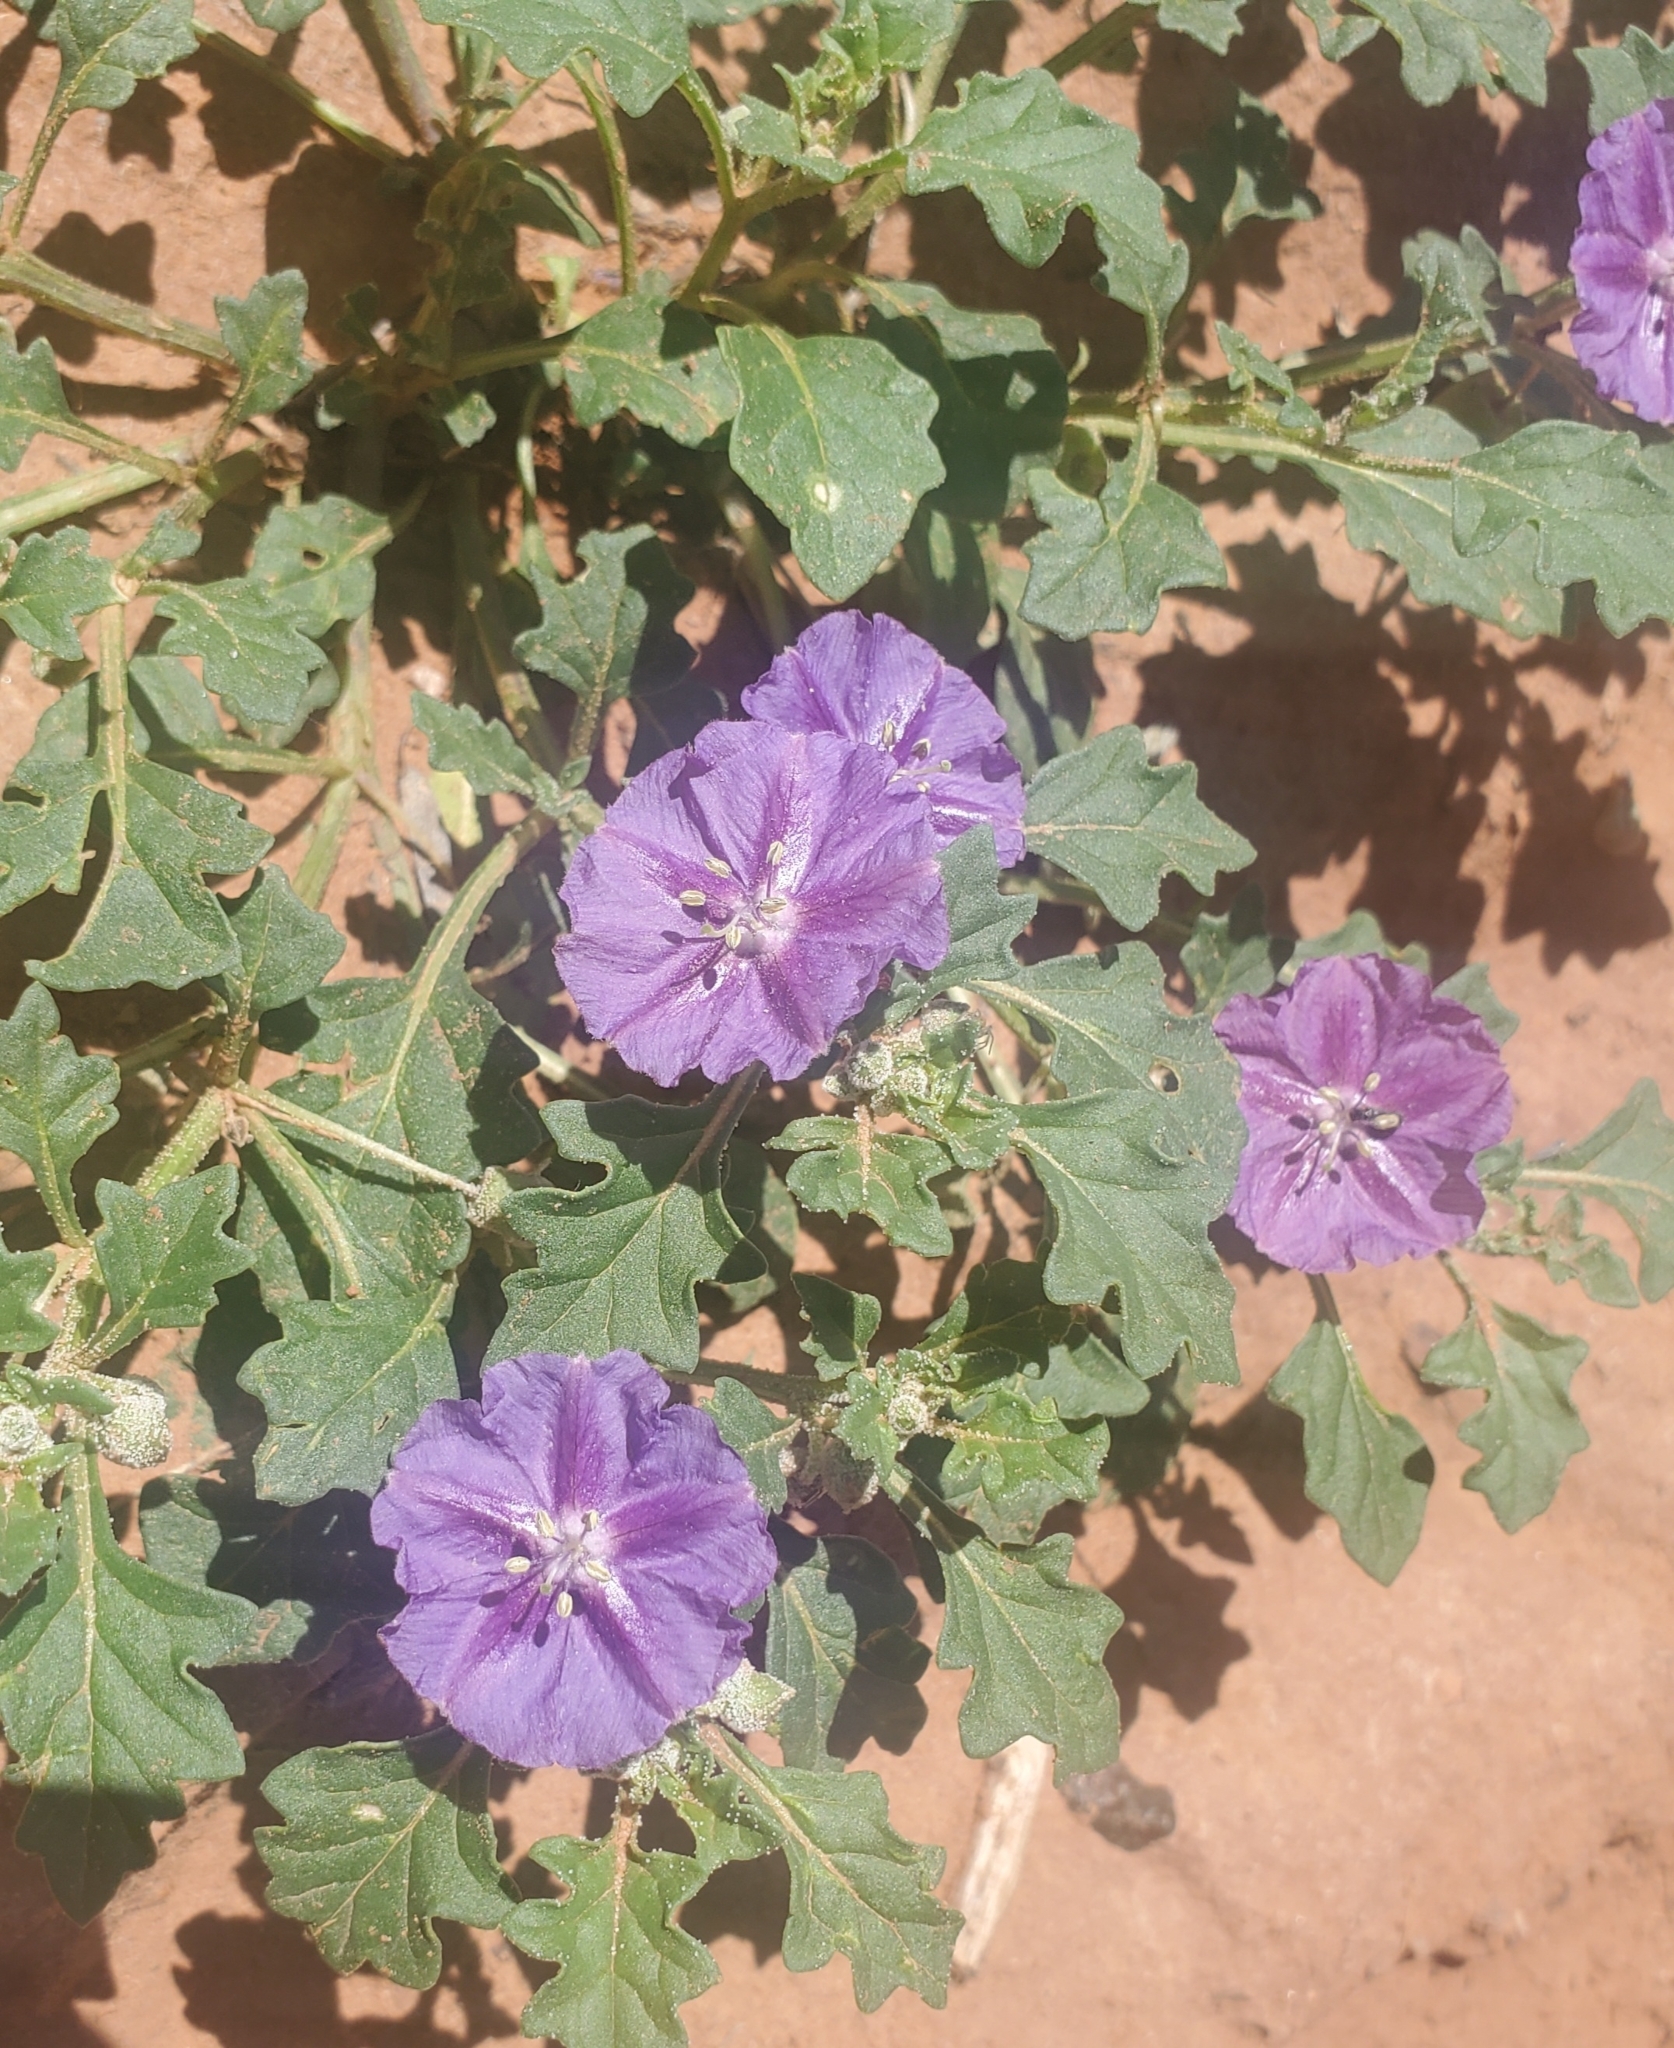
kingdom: Plantae
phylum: Tracheophyta
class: Magnoliopsida
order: Solanales
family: Solanaceae
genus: Quincula
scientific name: Quincula lobata
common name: Purple-ground-cherry
